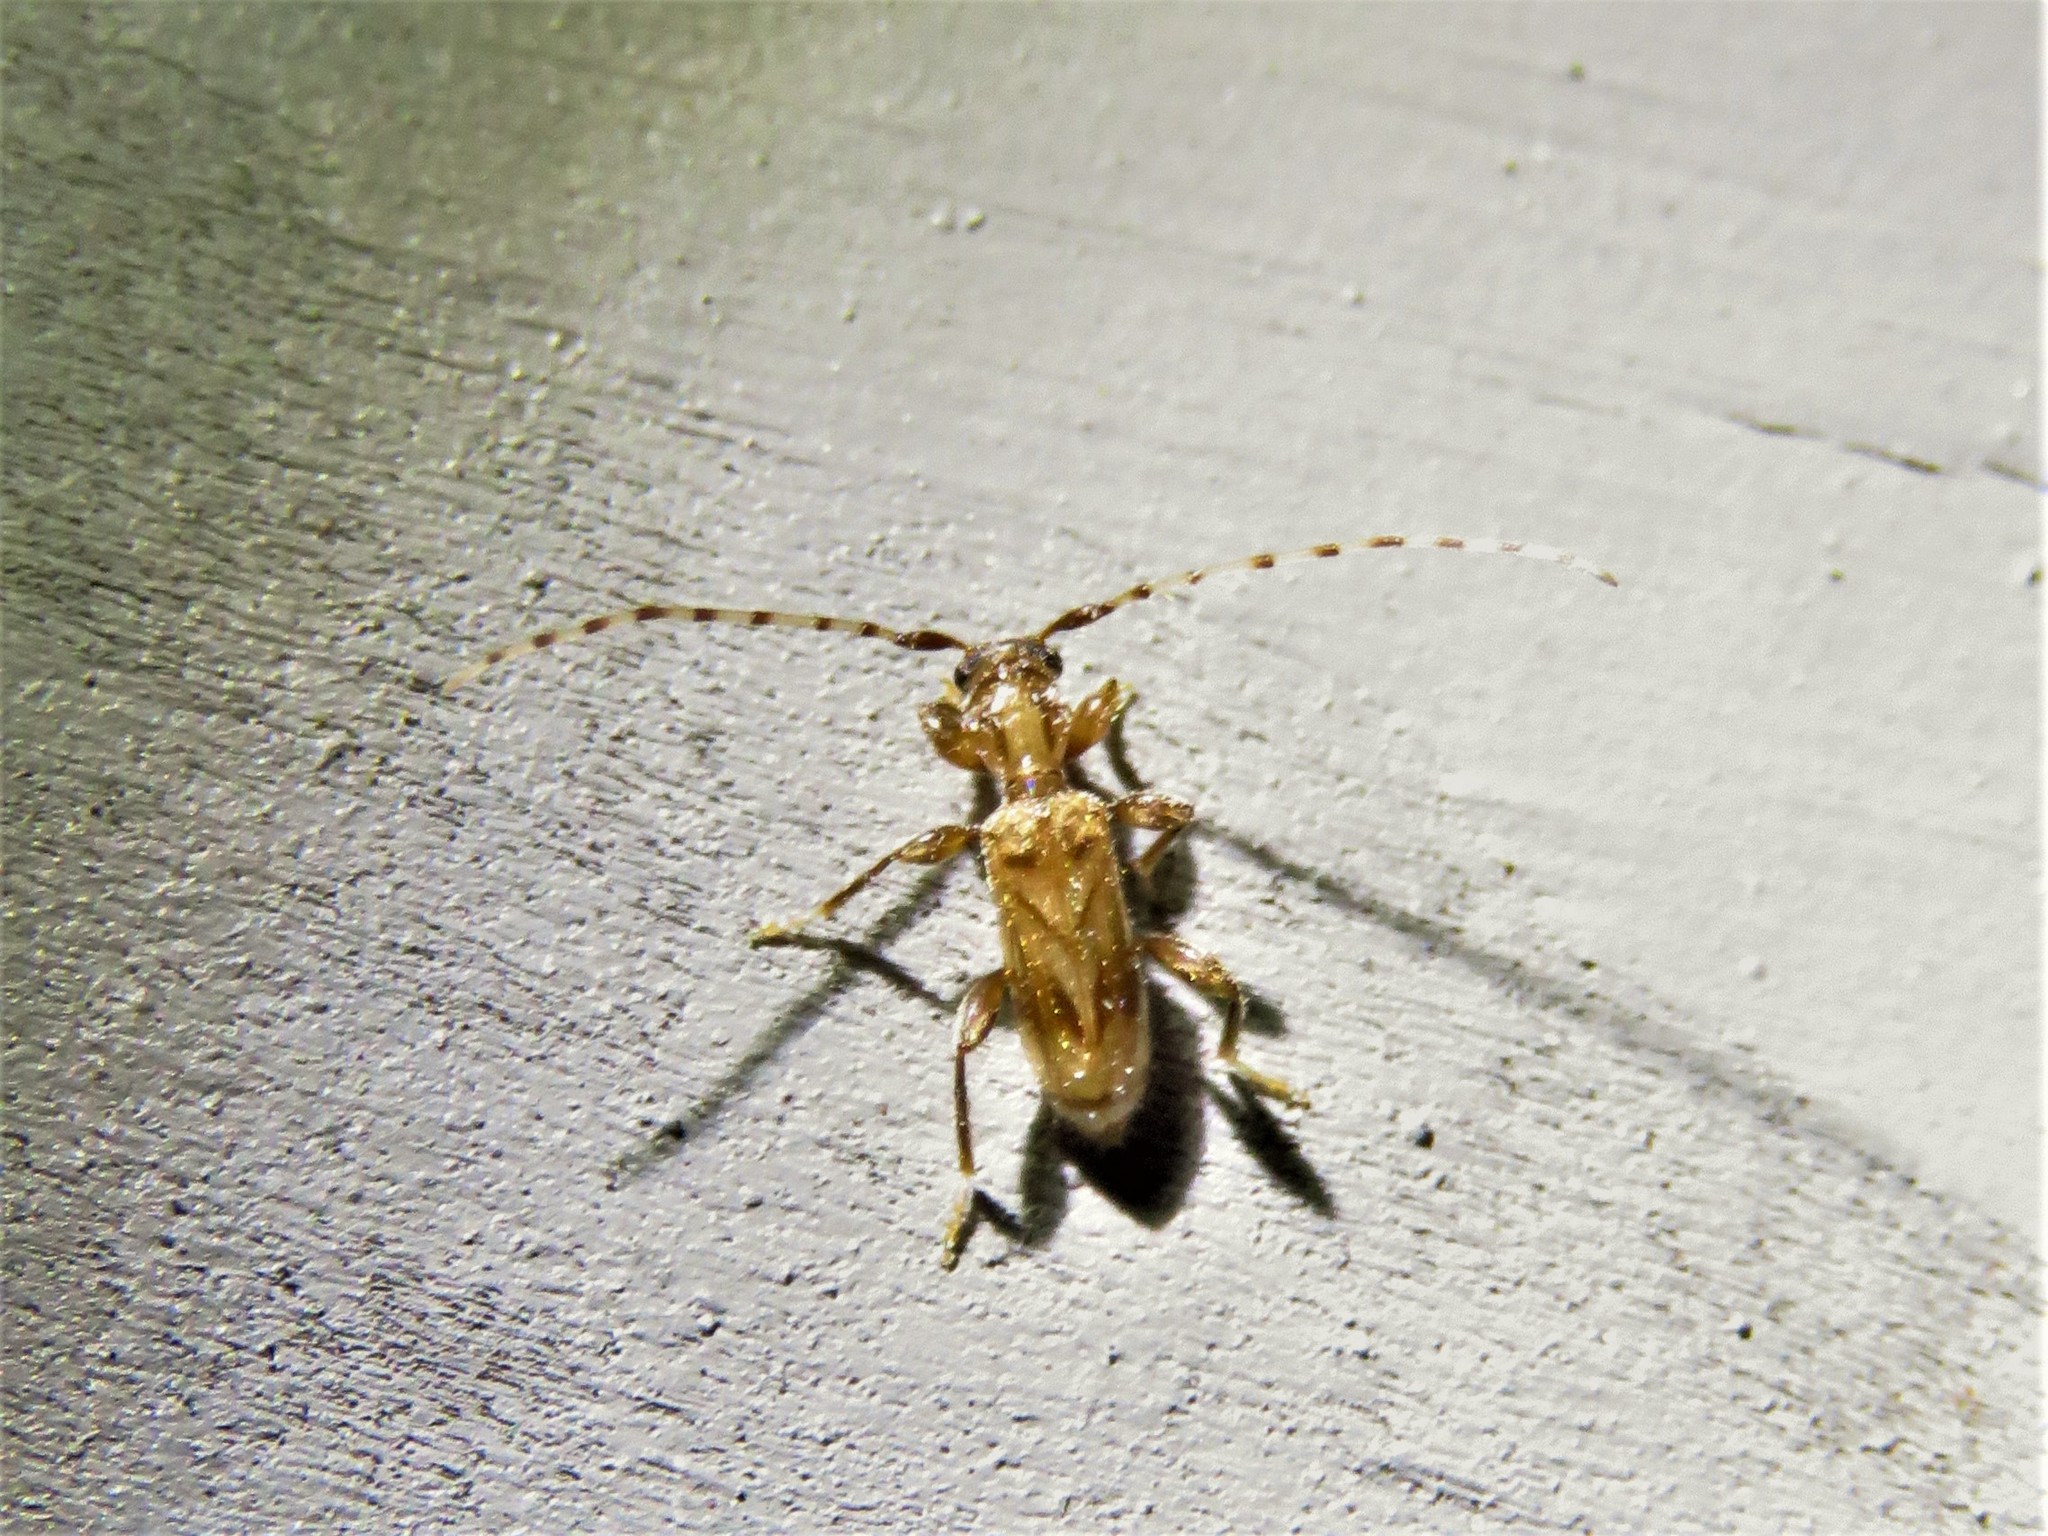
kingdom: Animalia
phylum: Arthropoda
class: Insecta
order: Coleoptera
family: Cerambycidae
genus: Obrium
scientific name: Obrium maculatum
